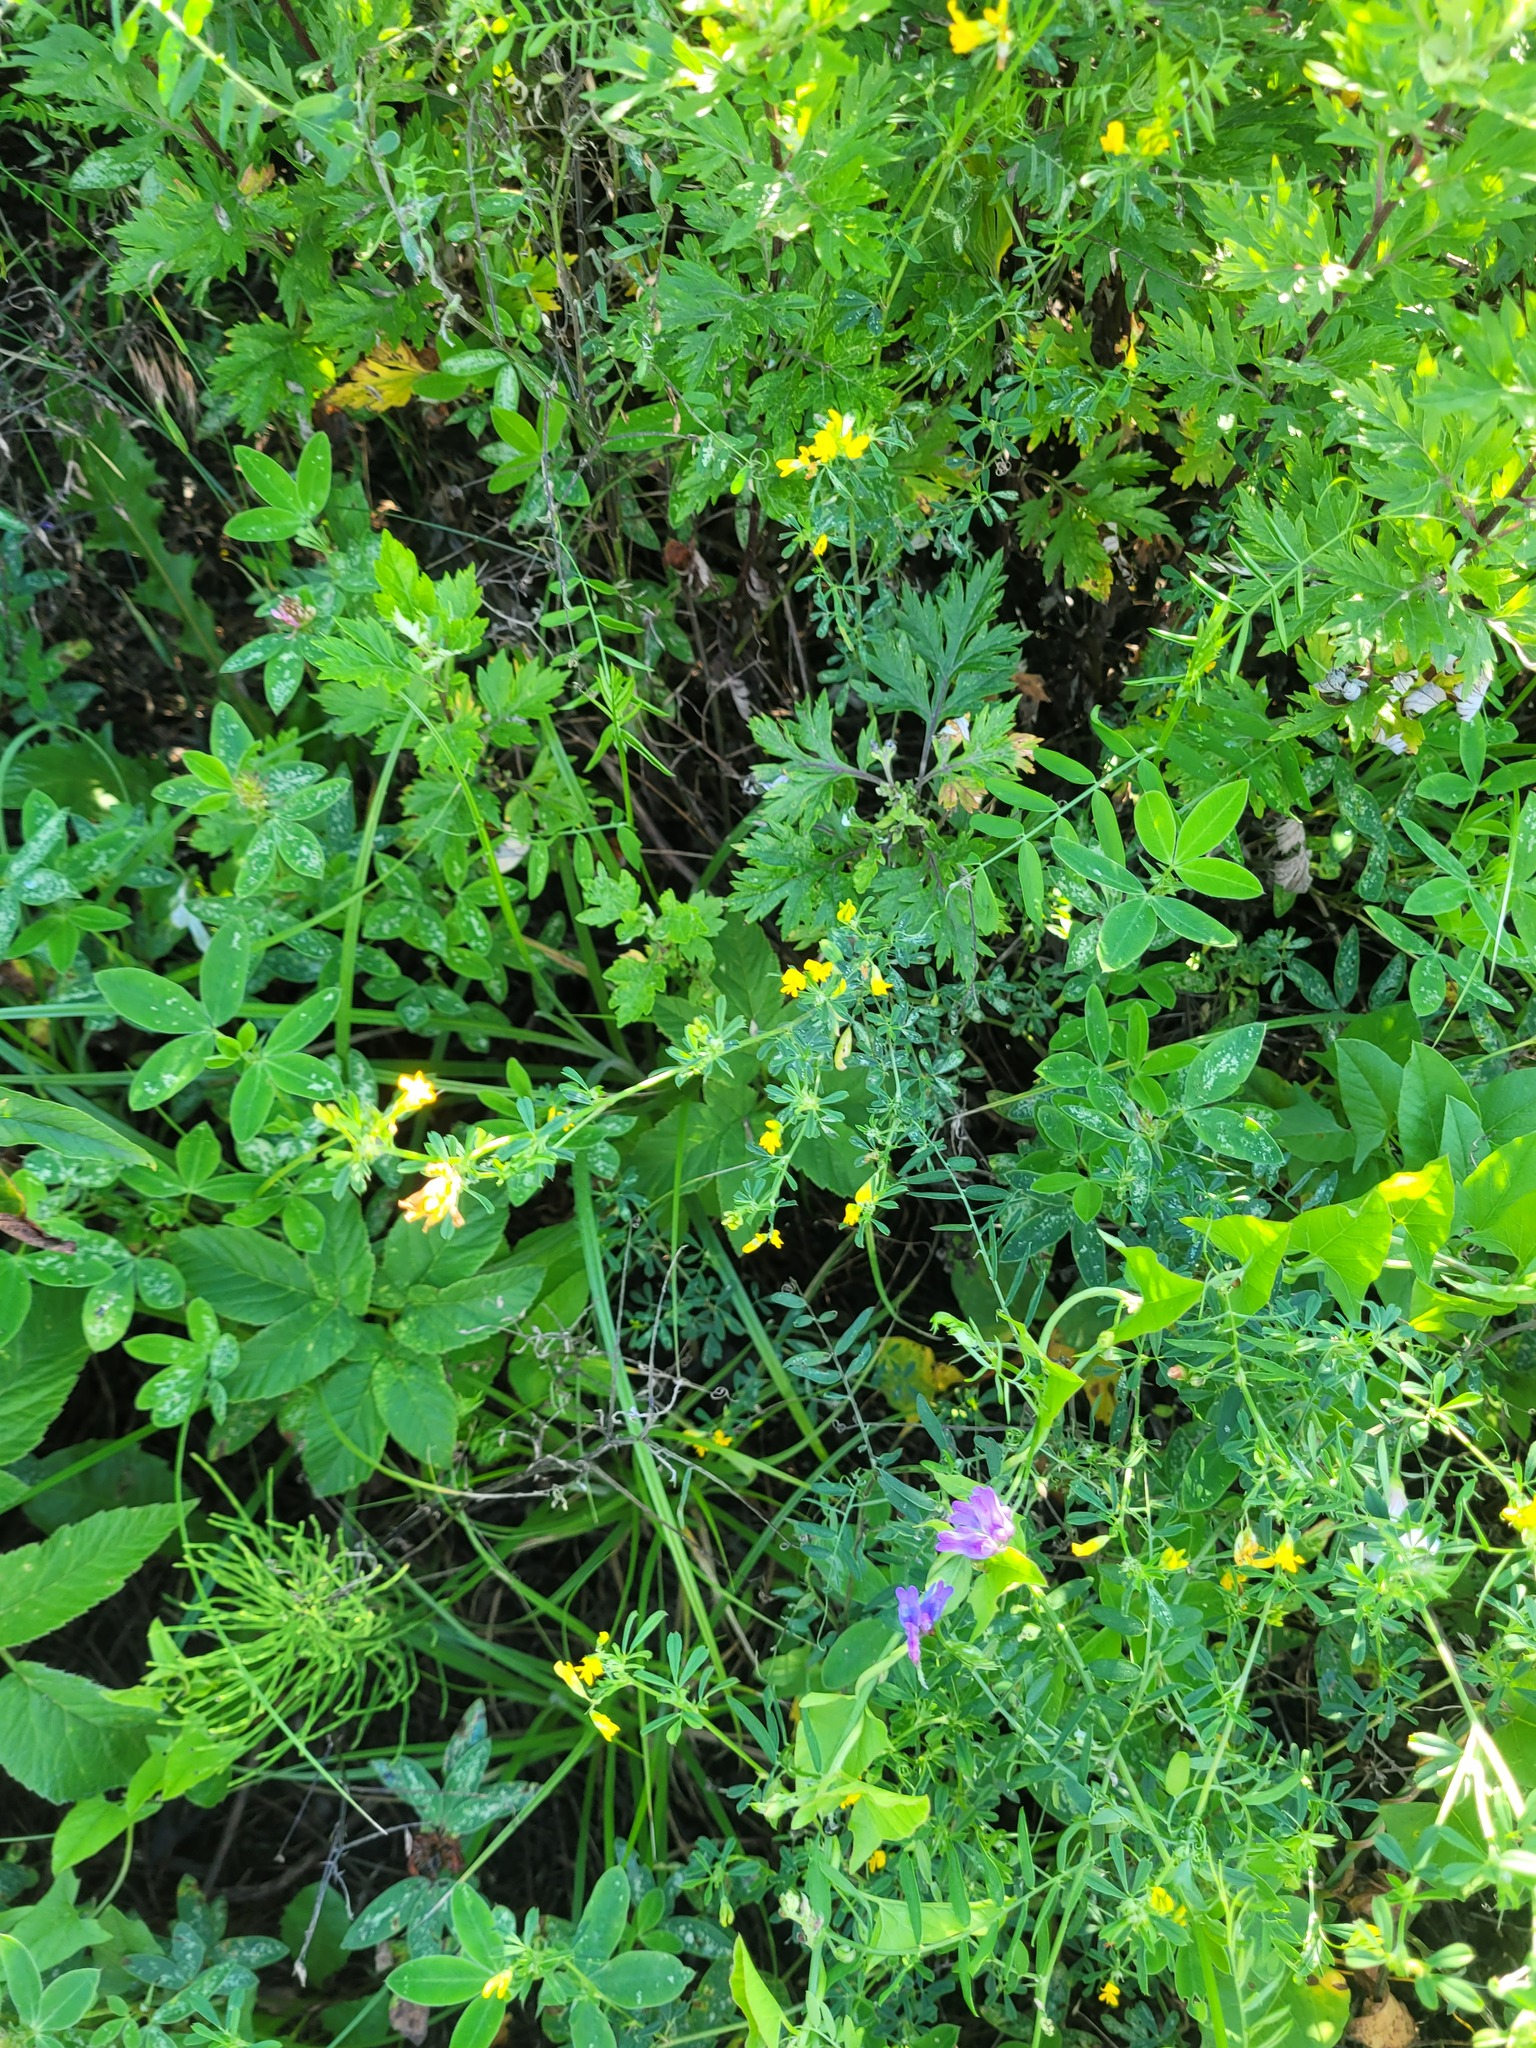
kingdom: Plantae
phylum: Tracheophyta
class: Magnoliopsida
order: Fabales
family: Fabaceae
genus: Medicago
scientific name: Medicago falcata
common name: Sickle medick
